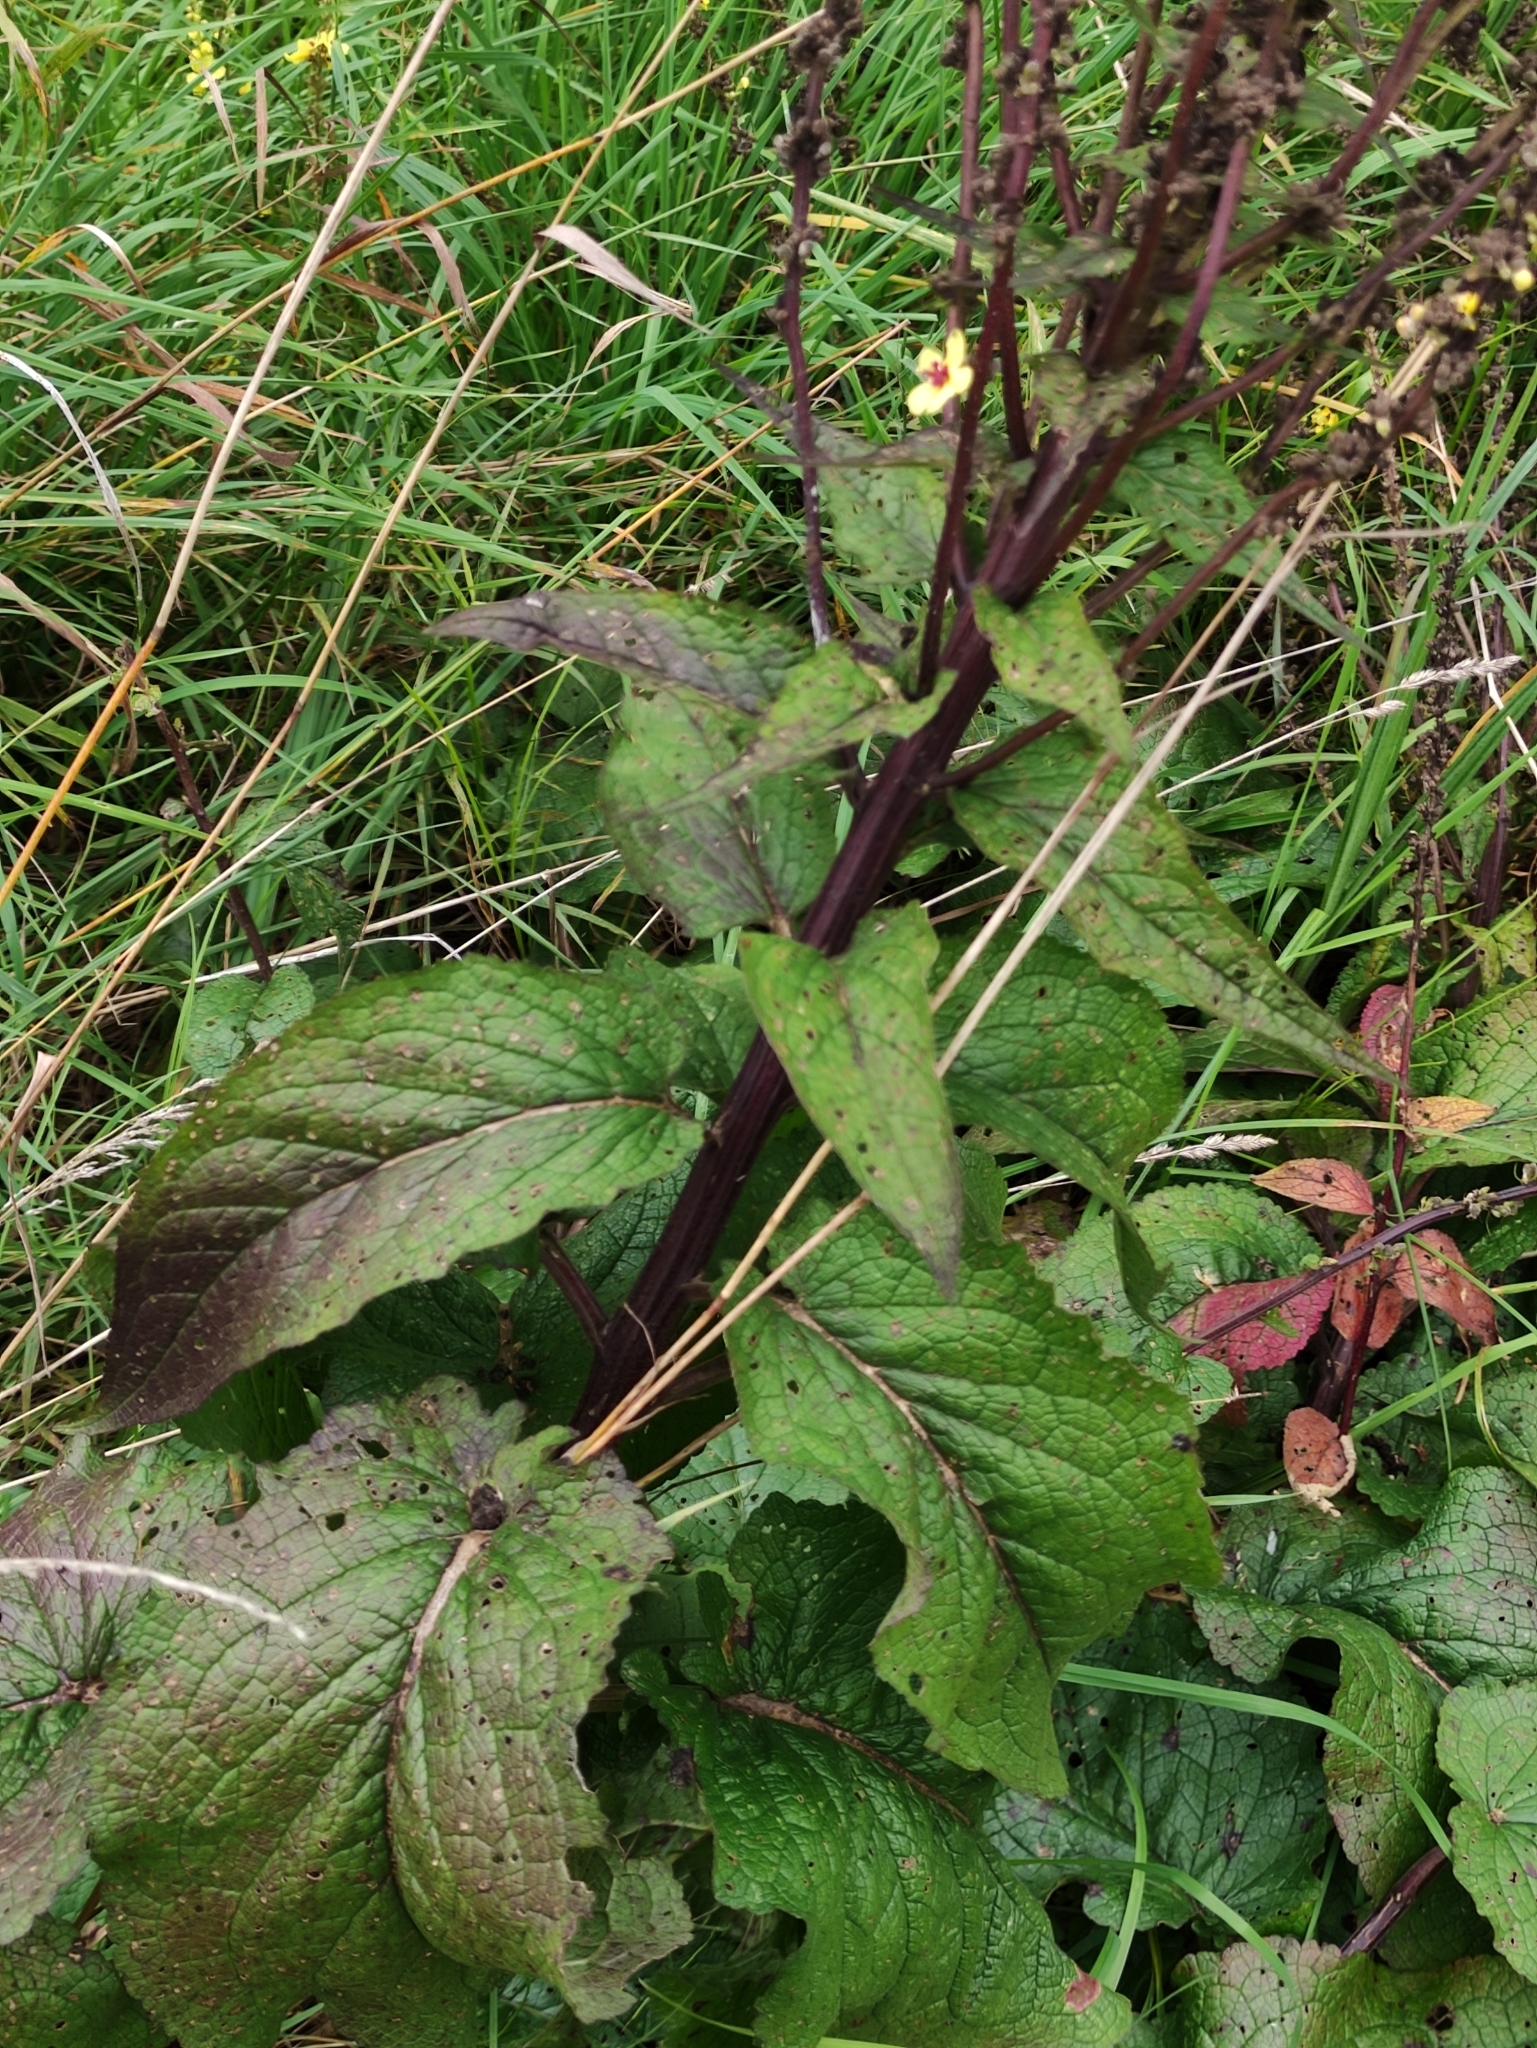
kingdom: Plantae
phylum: Tracheophyta
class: Magnoliopsida
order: Lamiales
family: Scrophulariaceae
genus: Verbascum
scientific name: Verbascum nigrum
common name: Dark mullein
